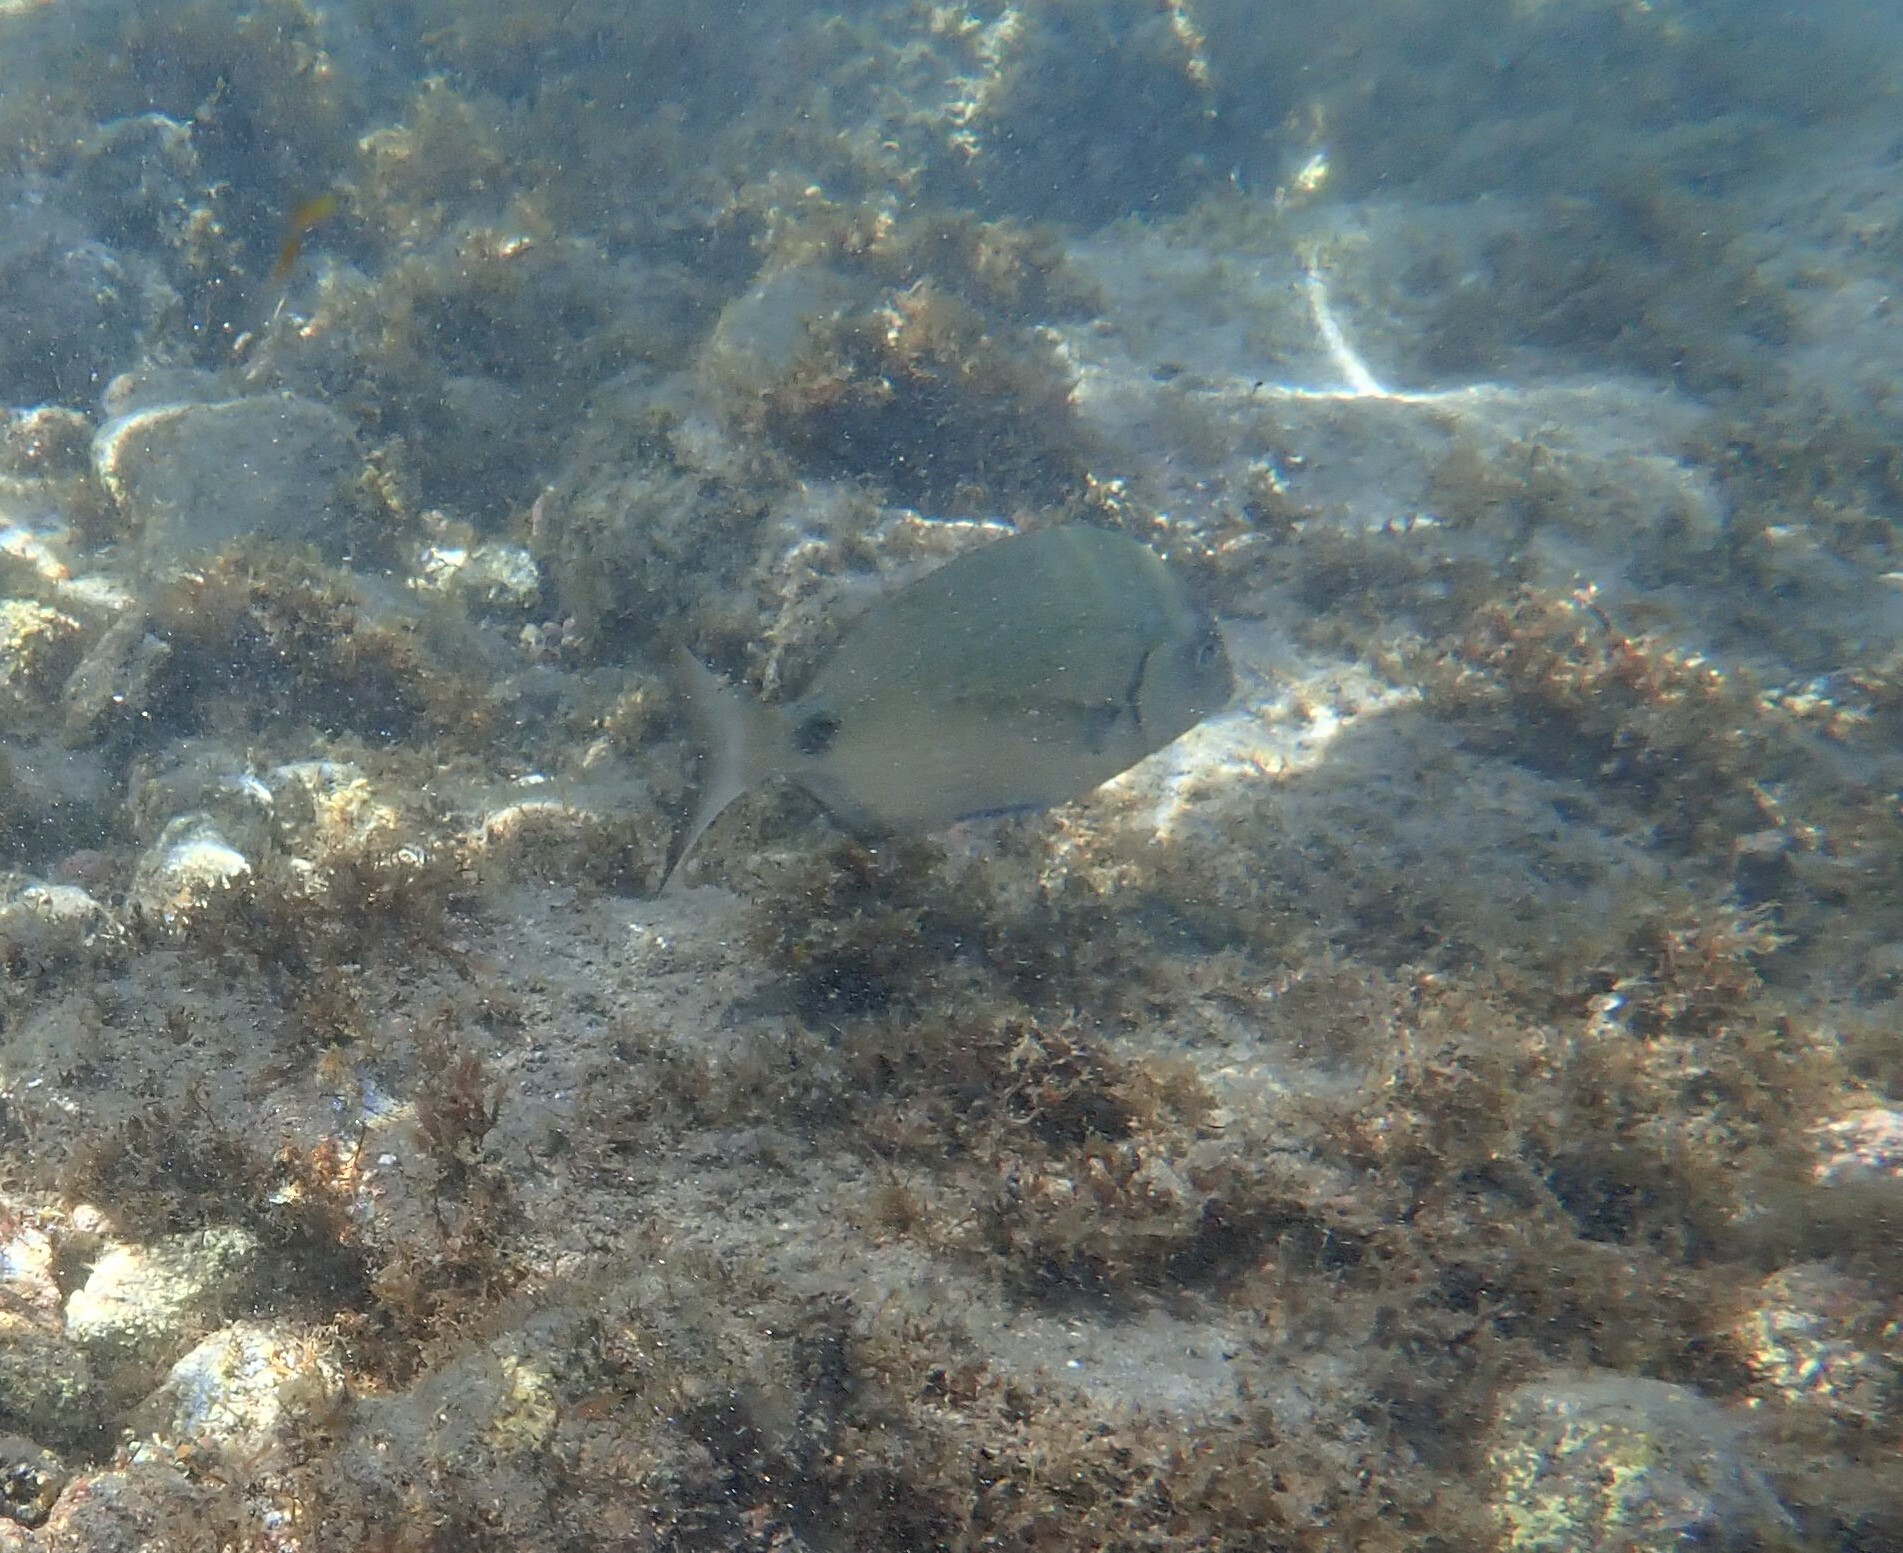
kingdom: Animalia
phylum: Chordata
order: Perciformes
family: Sparidae
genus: Diplodus
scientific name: Diplodus cadenati
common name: Moroccan white seabream
